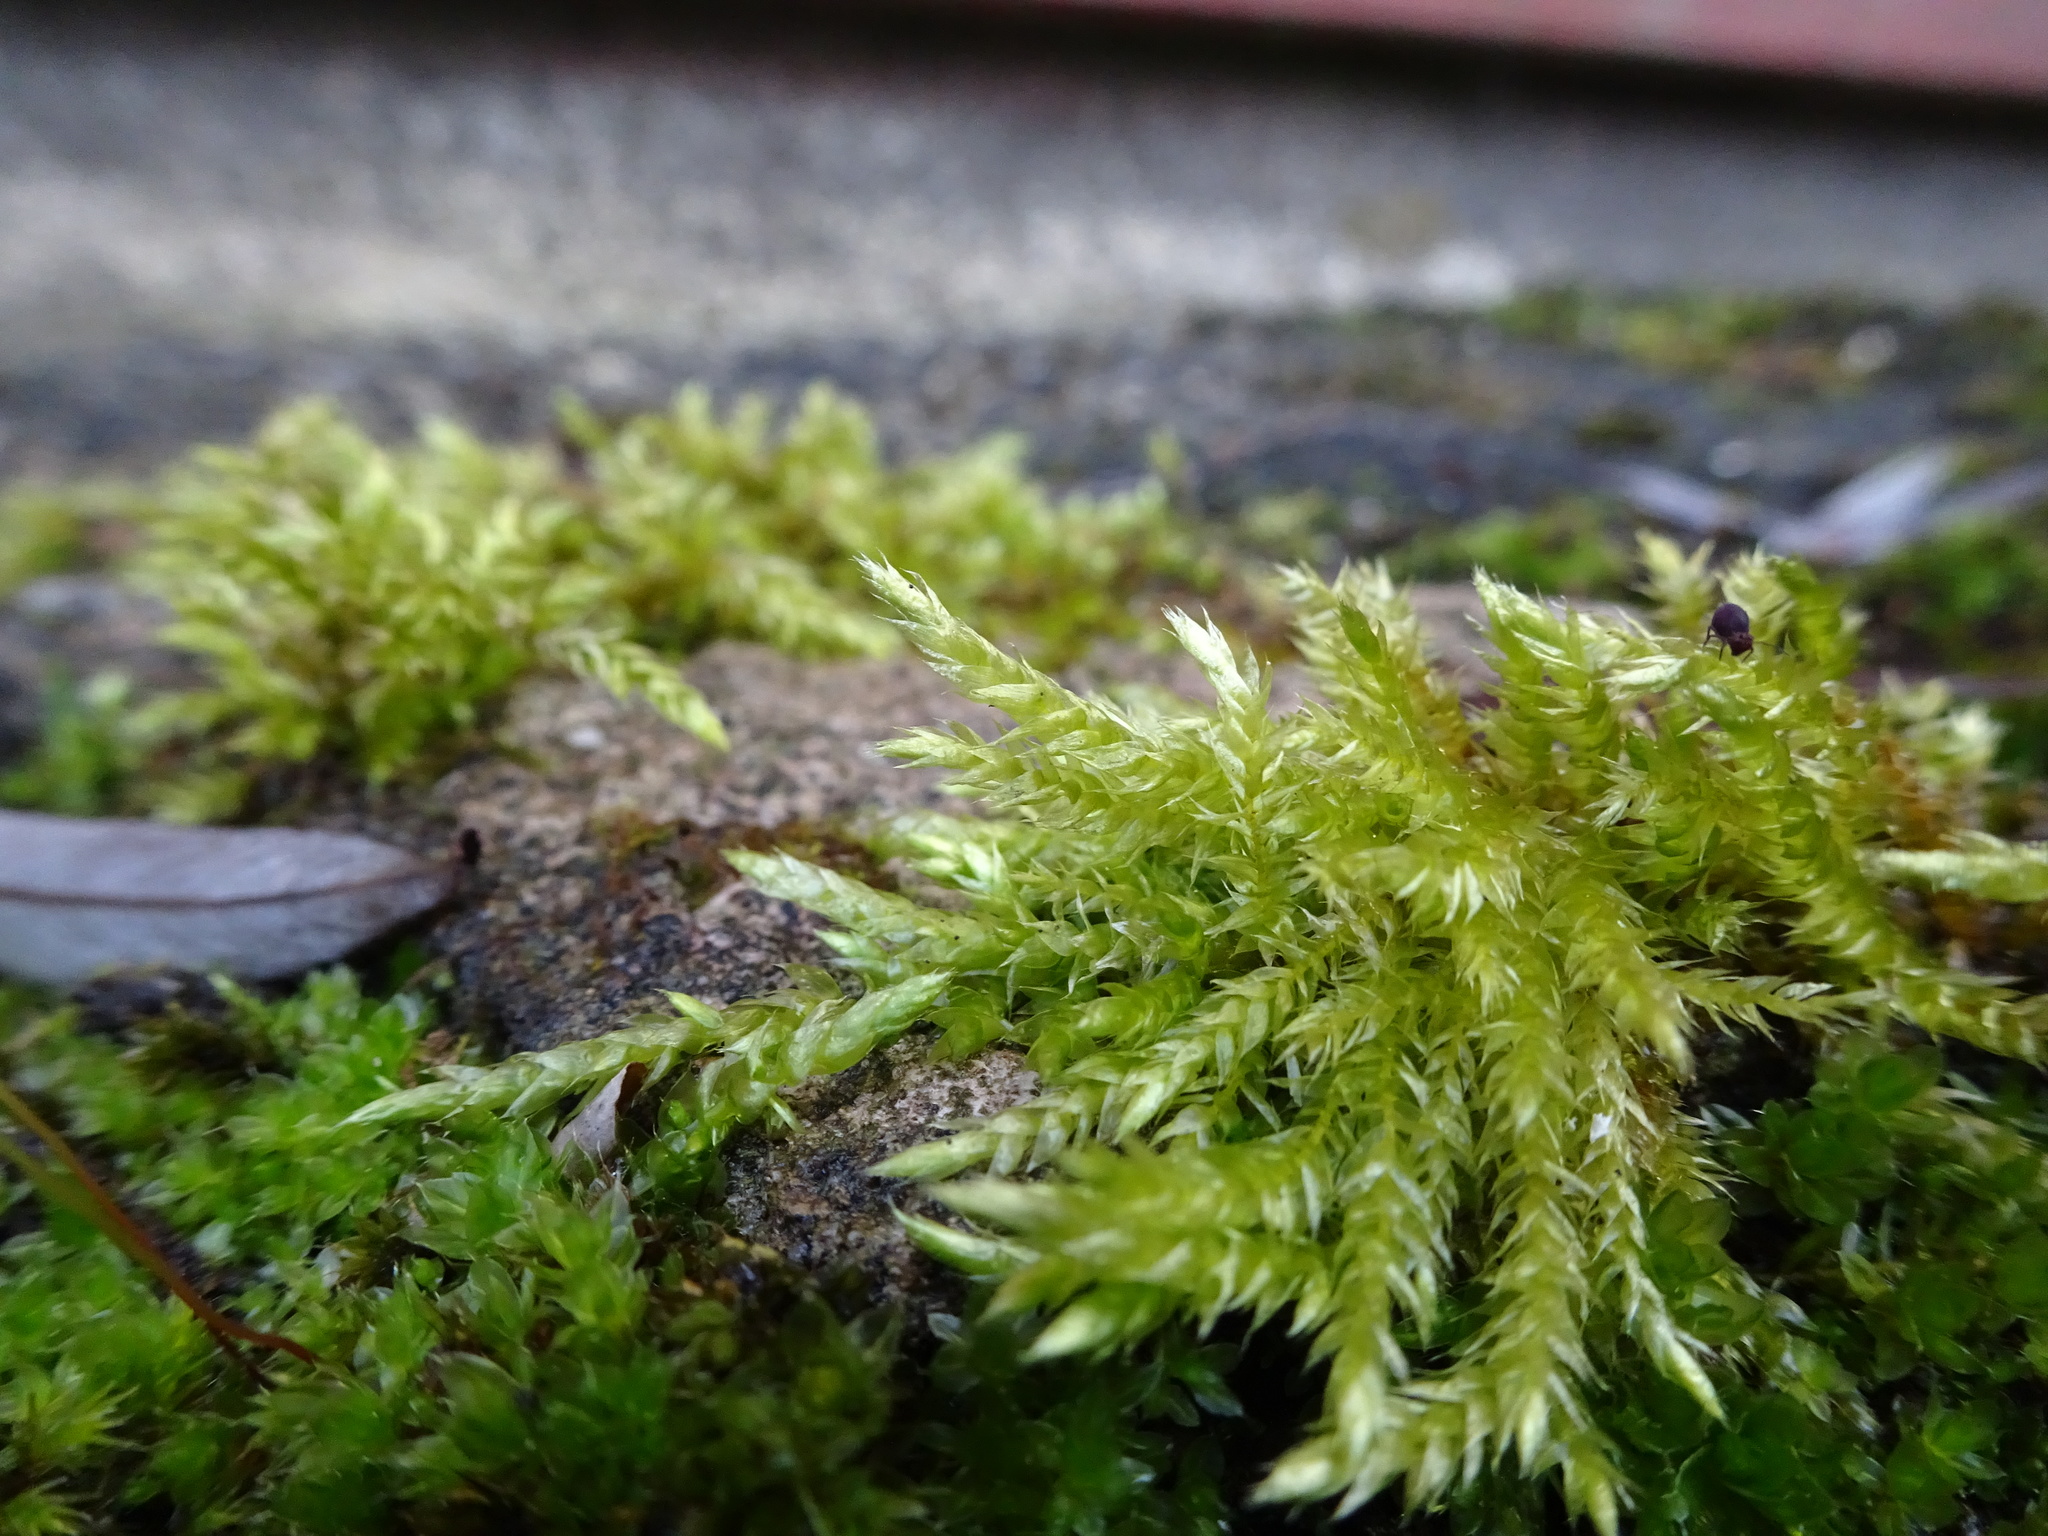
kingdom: Plantae
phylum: Bryophyta
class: Bryopsida
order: Hypnales
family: Brachytheciaceae
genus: Brachythecium
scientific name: Brachythecium rutabulum
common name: Rough-stalked feather-moss
